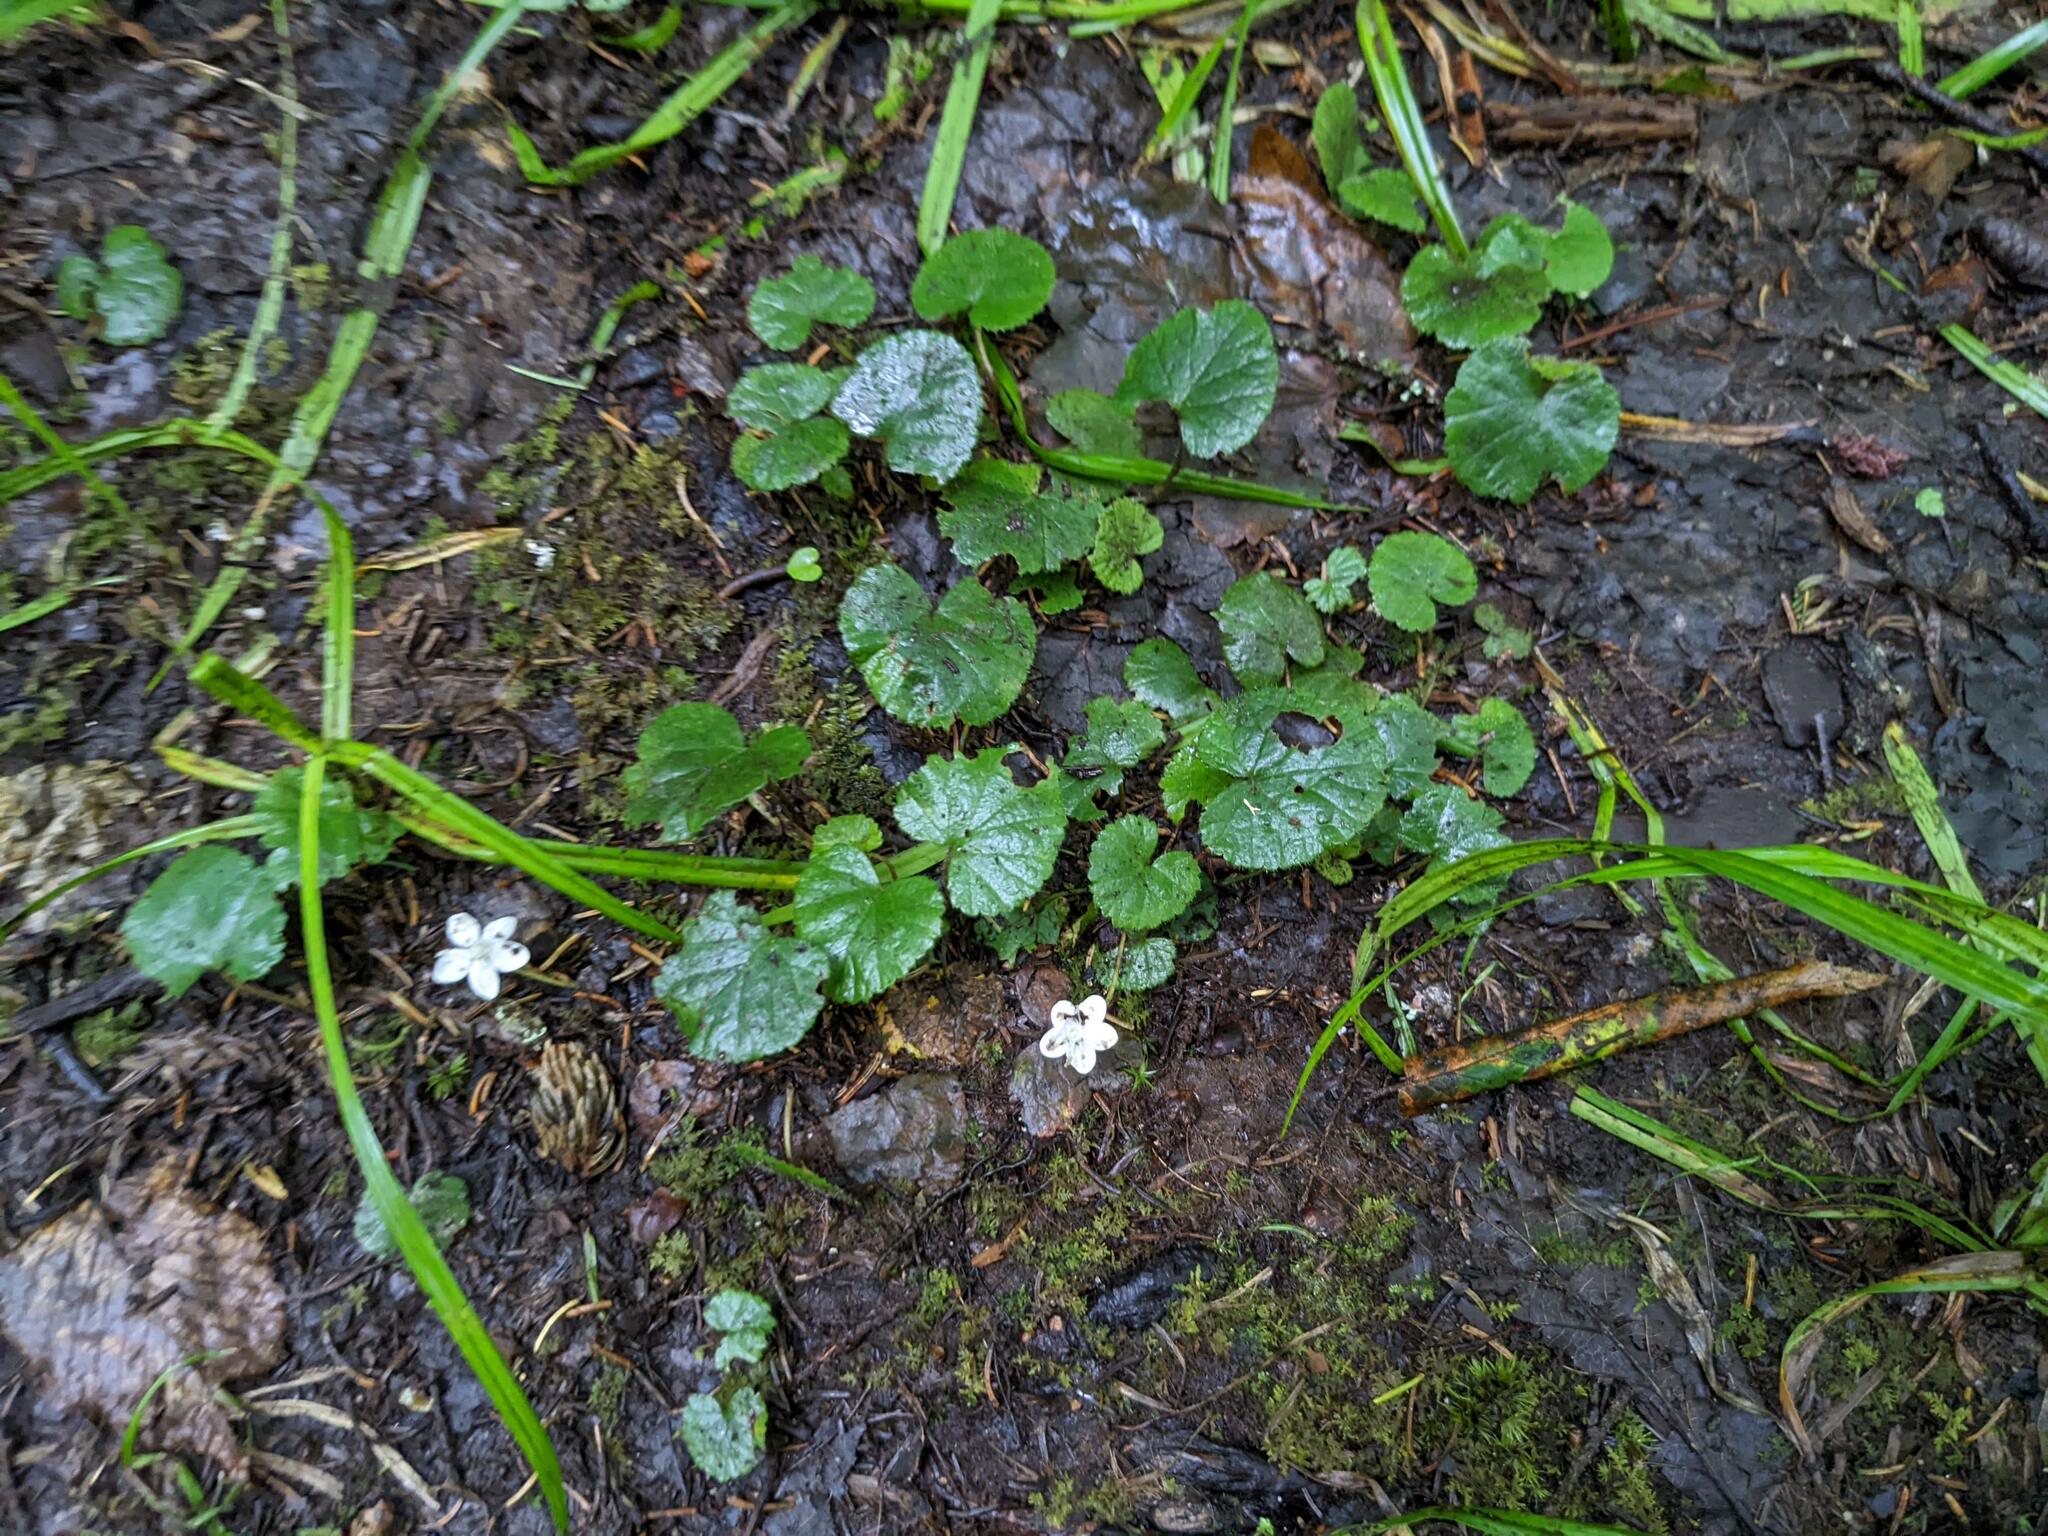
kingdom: Plantae
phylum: Tracheophyta
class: Magnoliopsida
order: Rosales
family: Rosaceae
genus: Dalibarda
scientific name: Dalibarda repens
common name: Dewdrop
